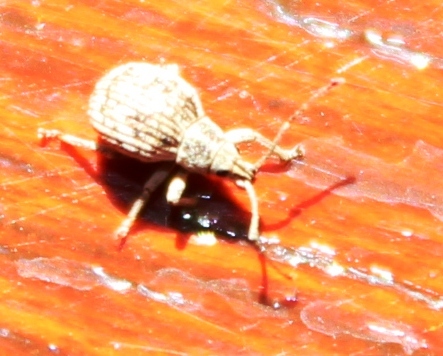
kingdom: Animalia
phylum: Arthropoda
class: Insecta
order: Coleoptera
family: Curculionidae
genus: Ellimenistes
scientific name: Ellimenistes laesicollis
